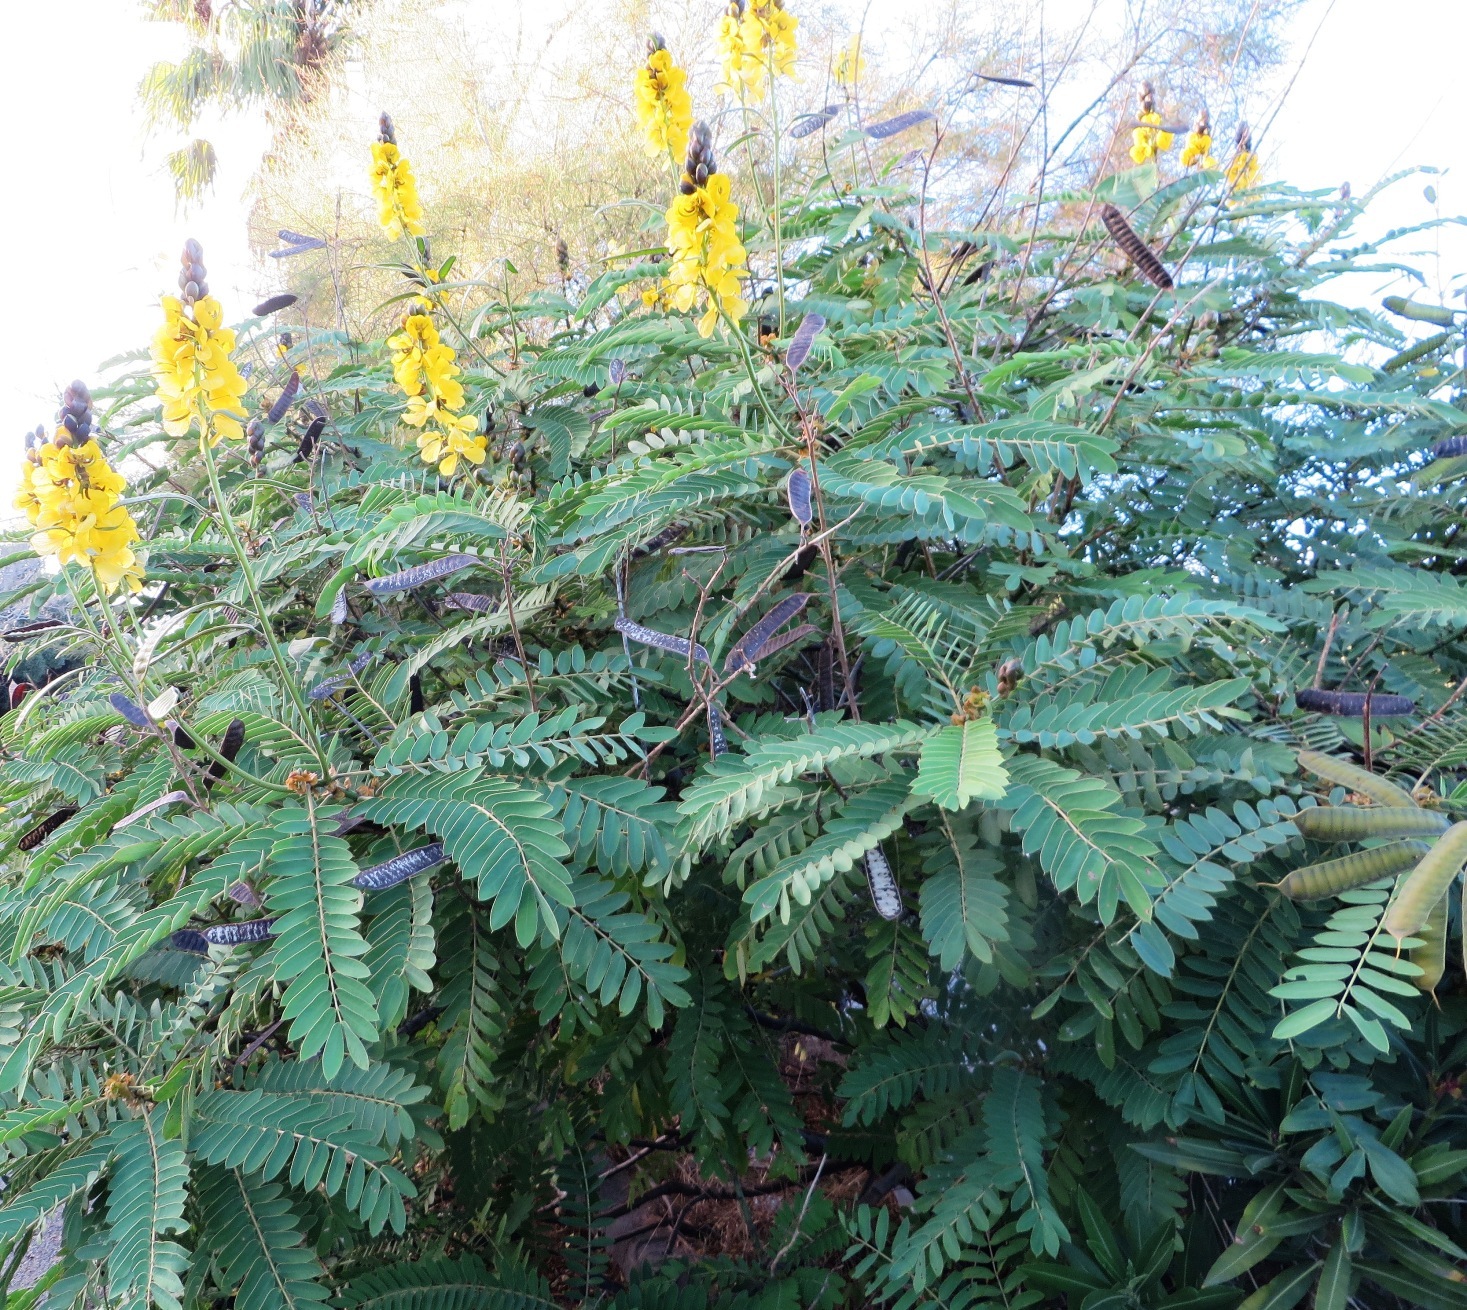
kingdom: Plantae
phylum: Tracheophyta
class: Magnoliopsida
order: Fabales
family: Fabaceae
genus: Senna
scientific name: Senna didymobotrya
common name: African senna
